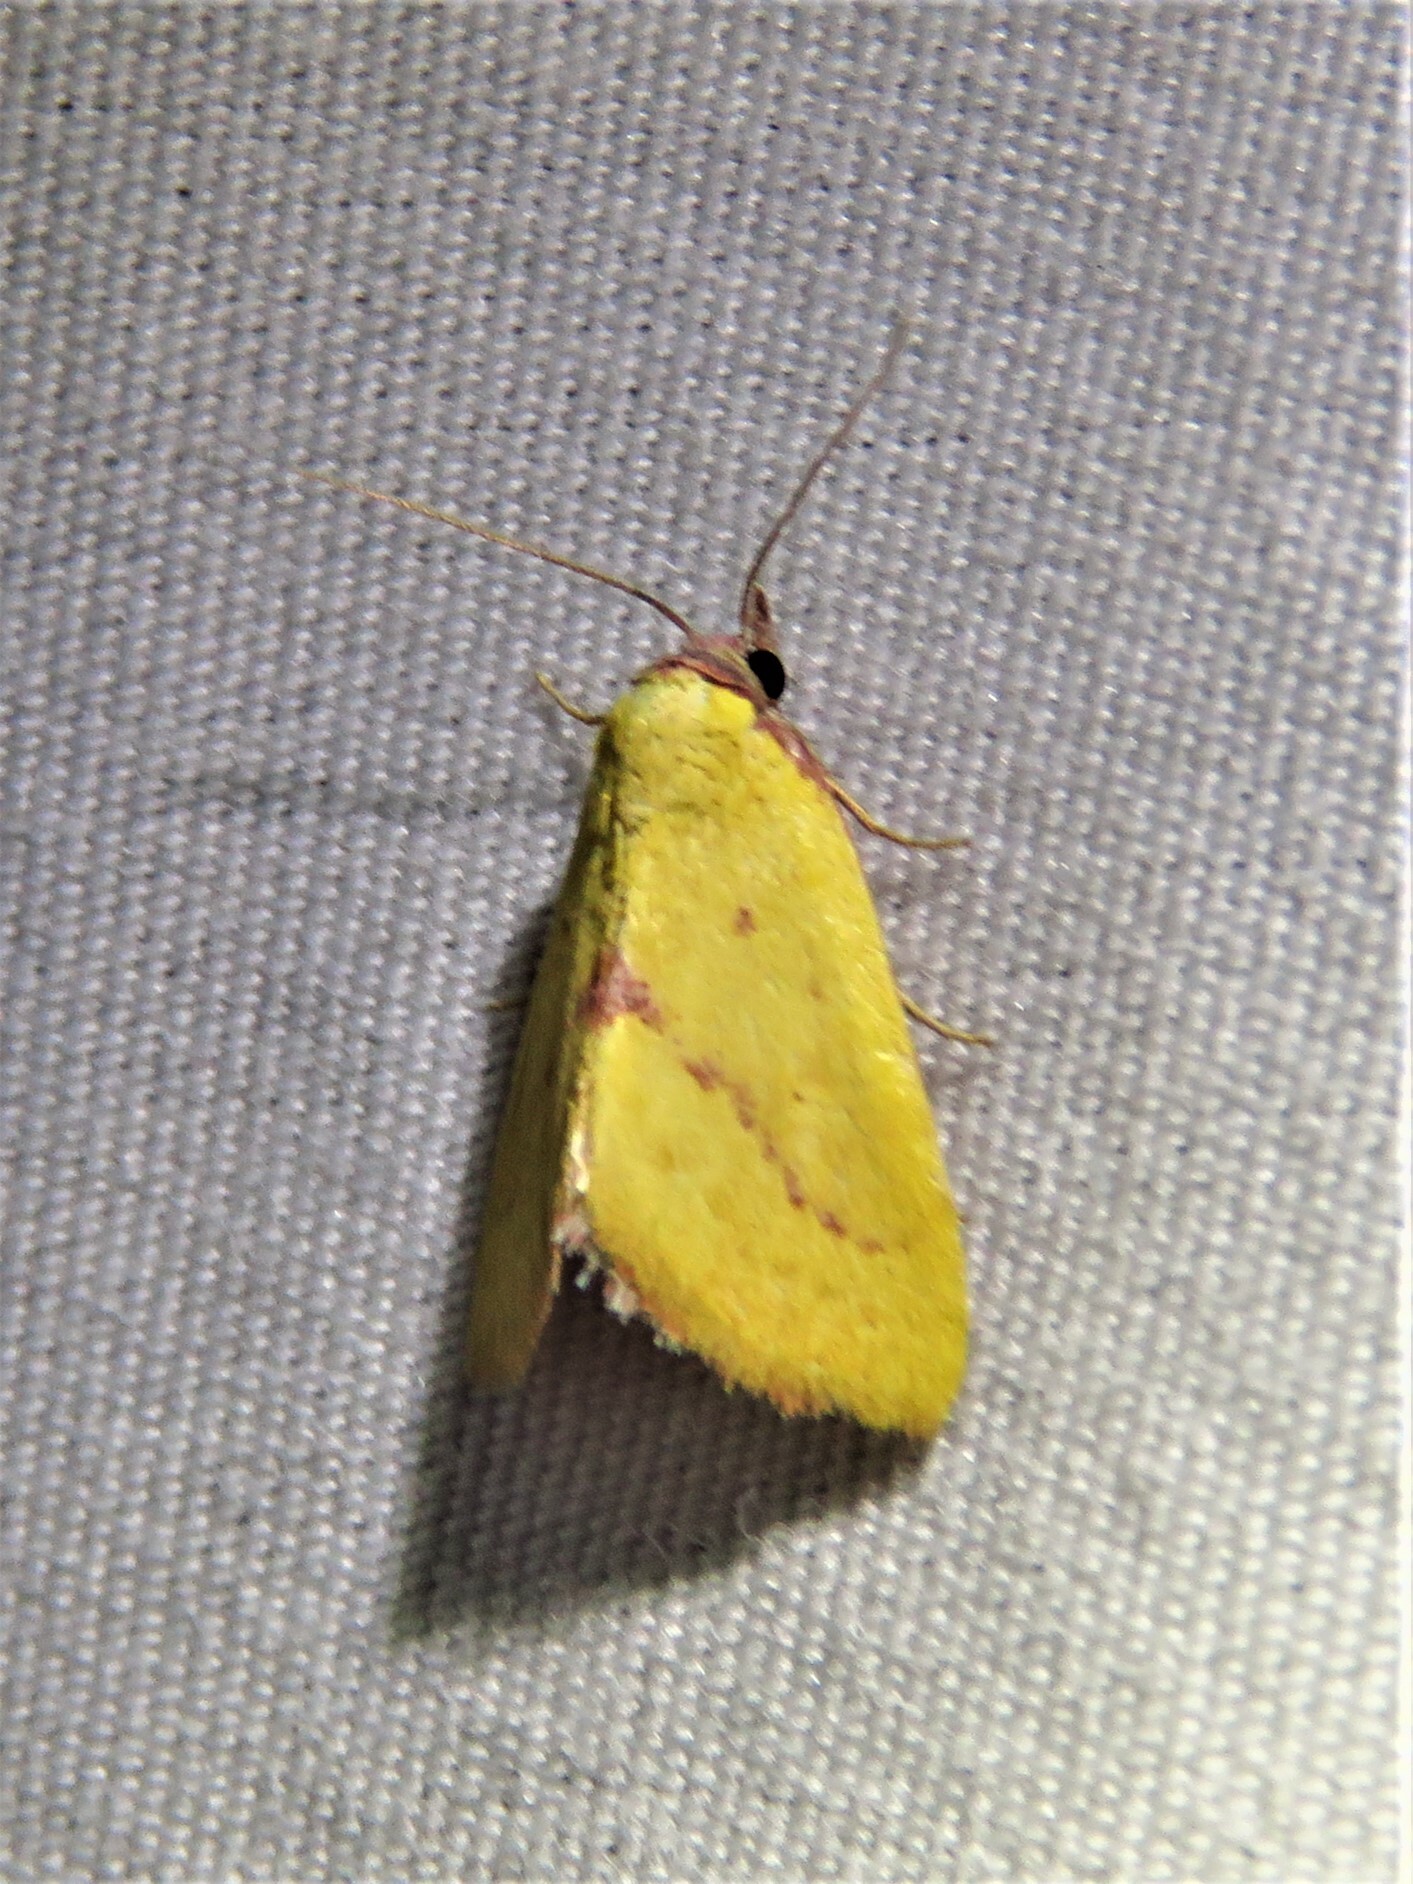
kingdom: Animalia
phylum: Arthropoda
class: Insecta
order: Lepidoptera
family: Erebidae
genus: Phytometra
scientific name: Phytometra orgiae
